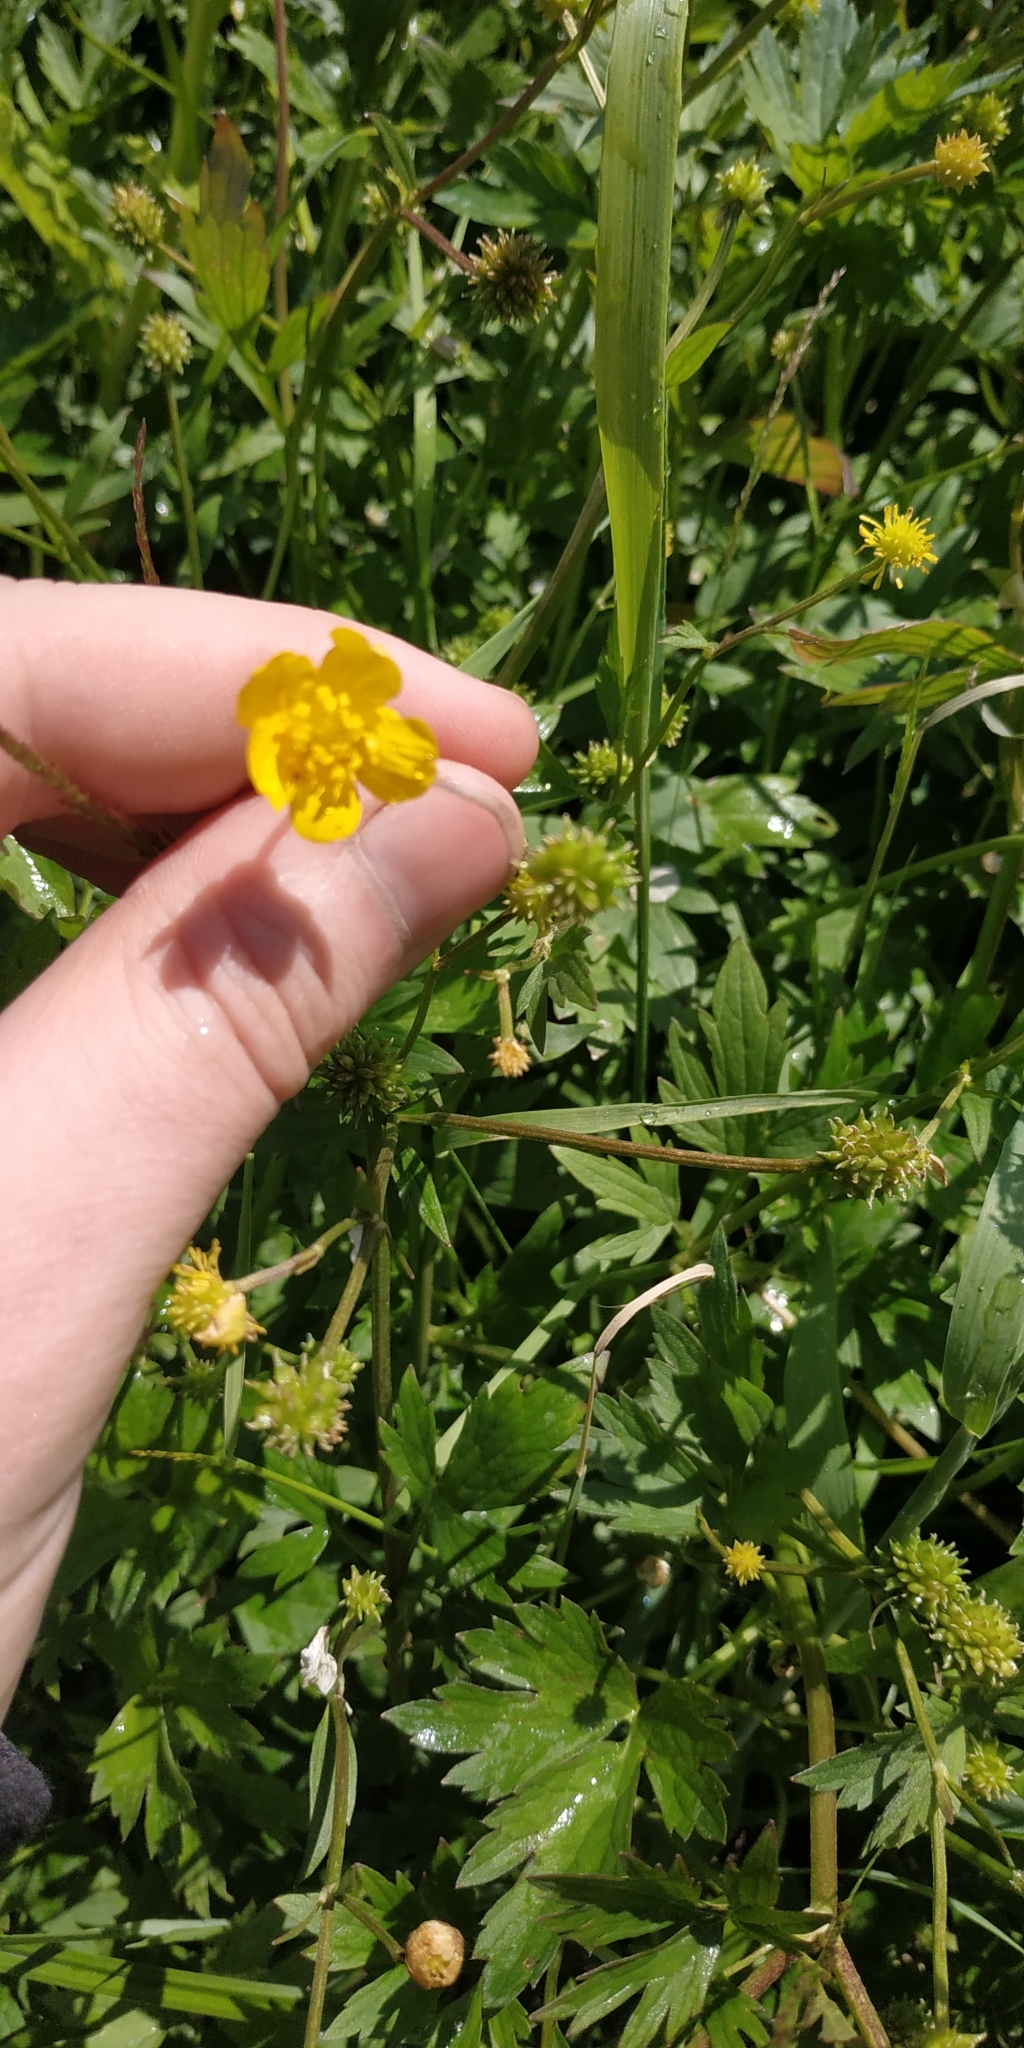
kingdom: Plantae
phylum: Tracheophyta
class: Magnoliopsida
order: Ranunculales
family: Ranunculaceae
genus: Ranunculus
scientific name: Ranunculus repens
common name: Creeping buttercup
